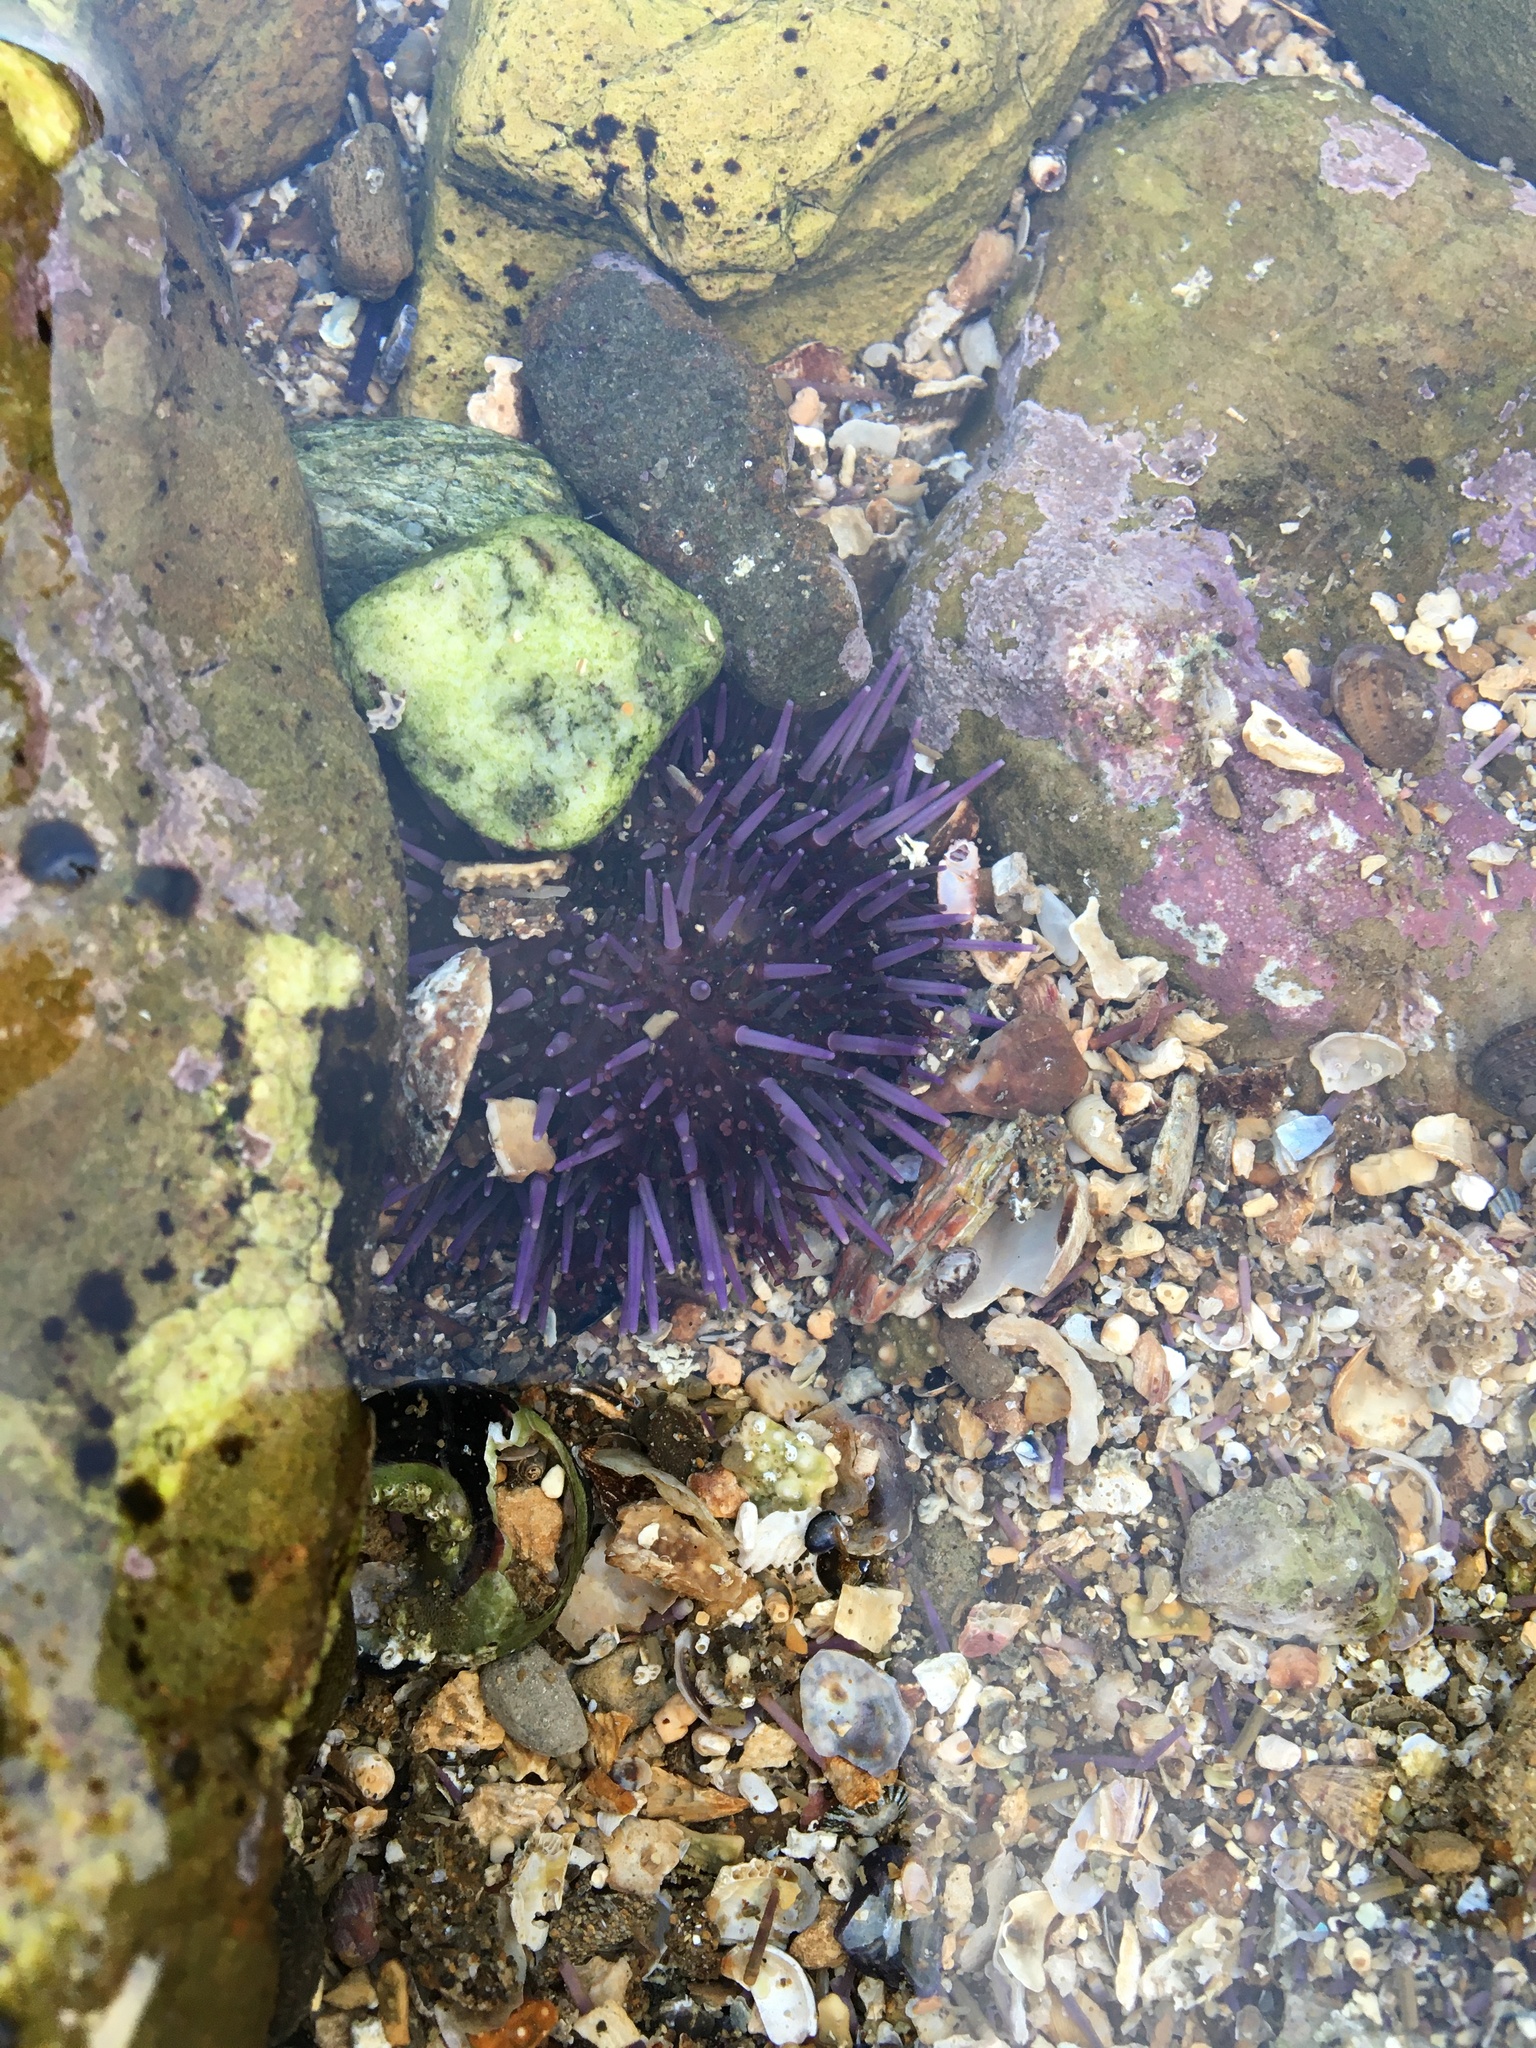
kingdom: Animalia
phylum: Echinodermata
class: Echinoidea
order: Camarodonta
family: Strongylocentrotidae
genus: Strongylocentrotus
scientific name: Strongylocentrotus purpuratus
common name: Purple sea urchin
